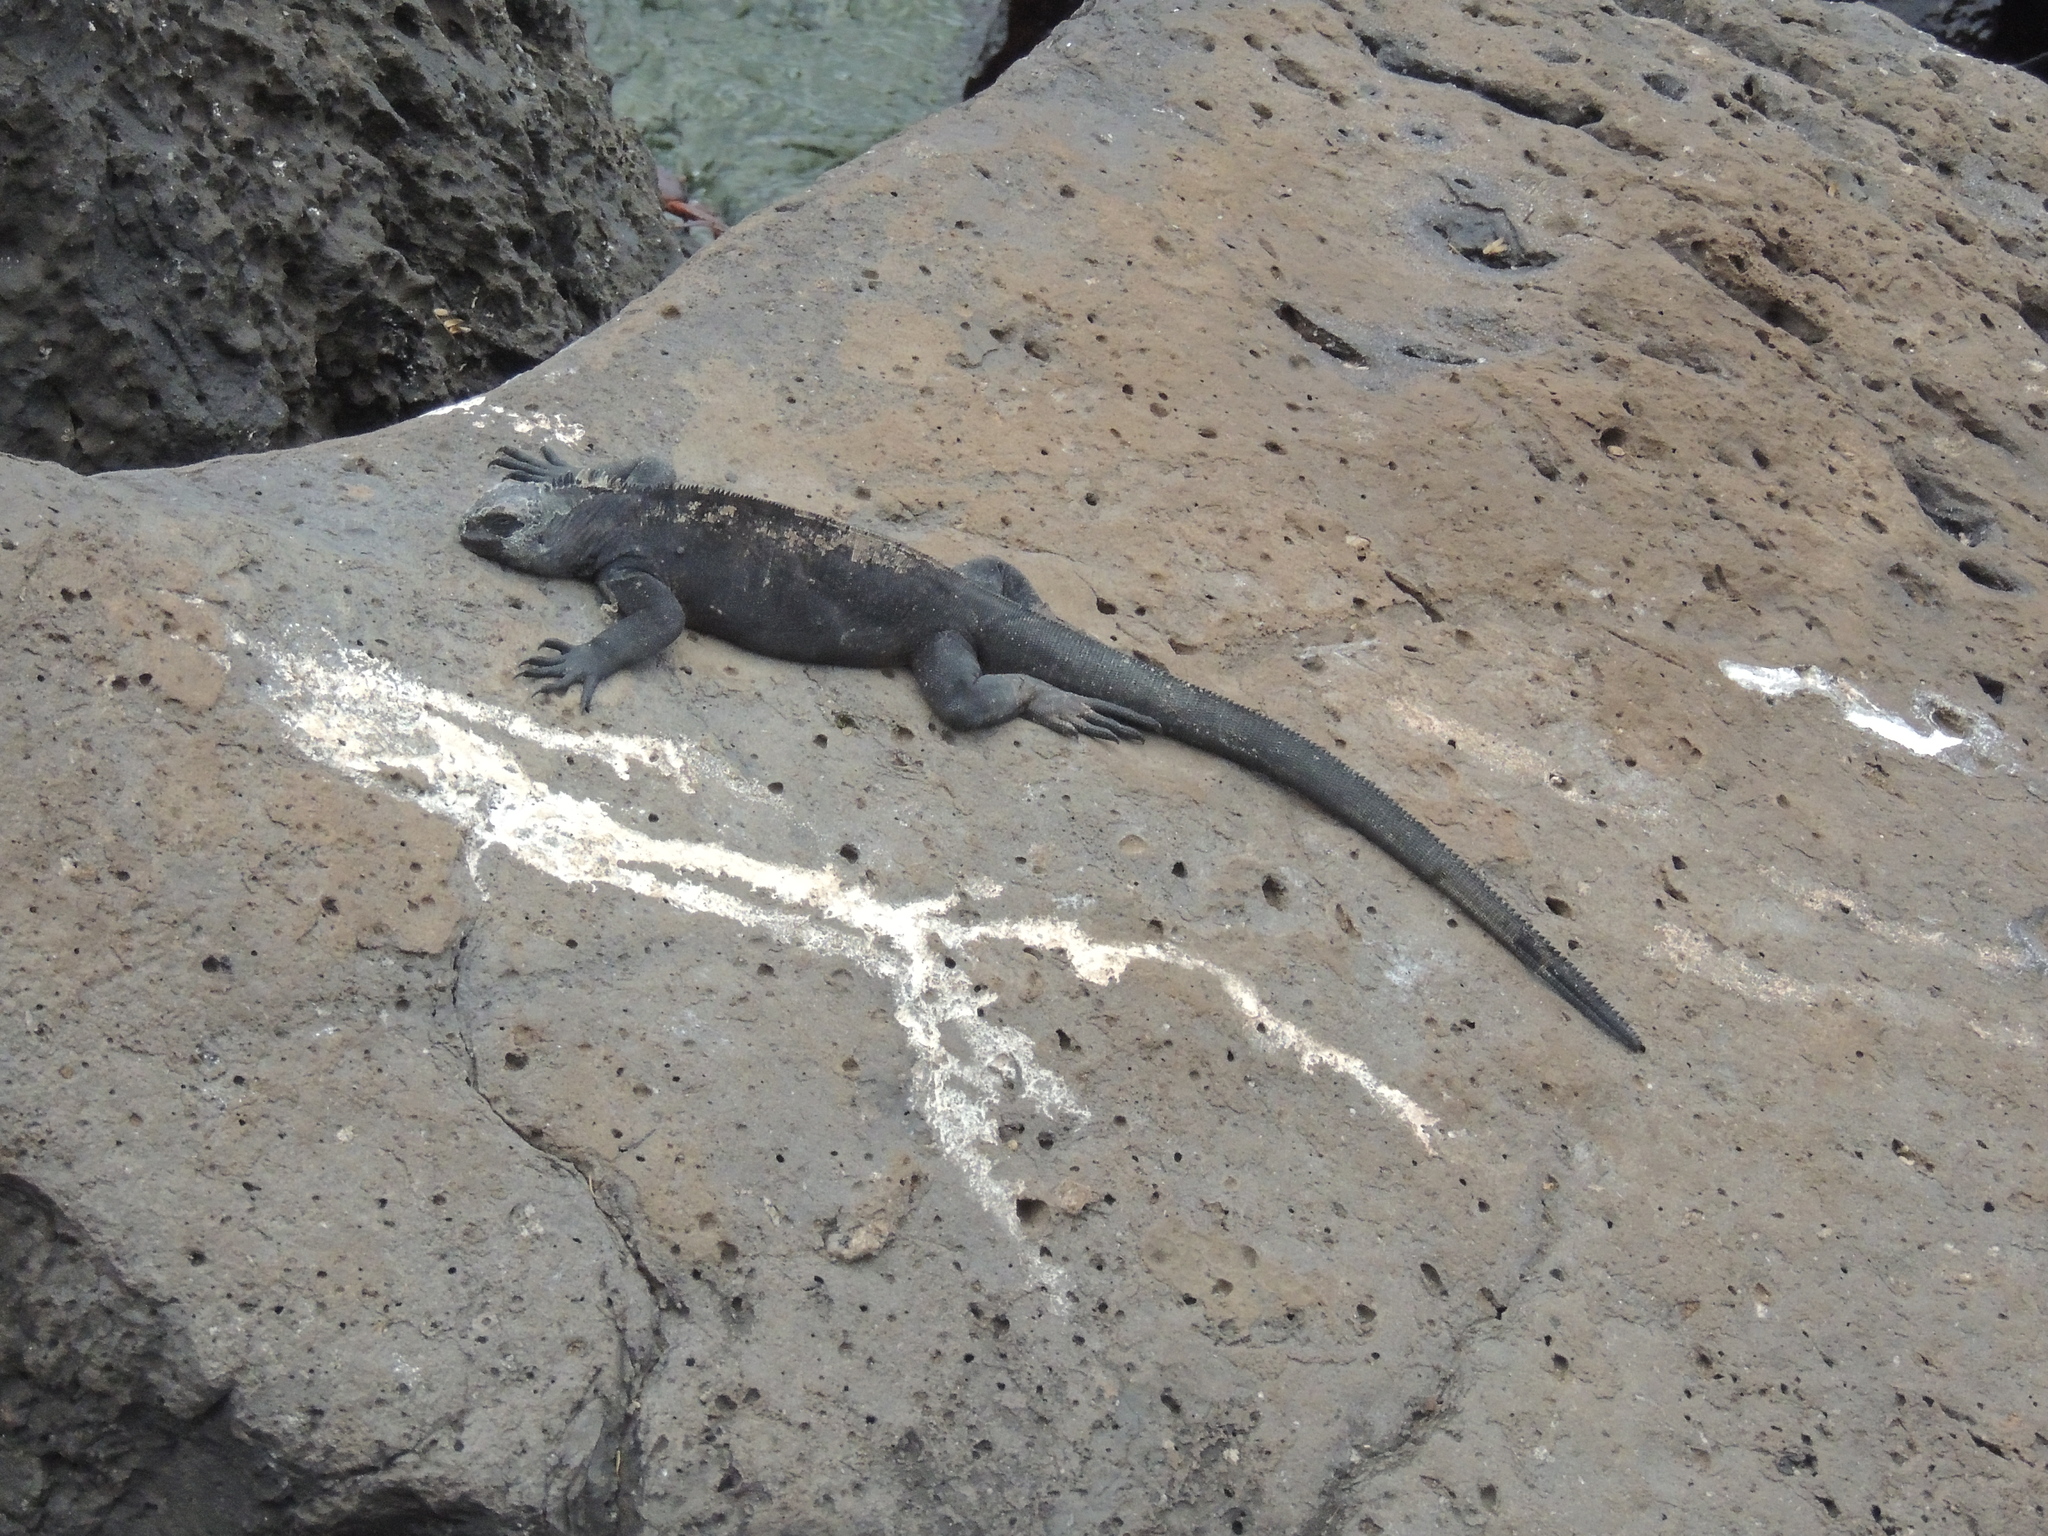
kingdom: Animalia
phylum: Chordata
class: Squamata
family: Iguanidae
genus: Amblyrhynchus
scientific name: Amblyrhynchus cristatus
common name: Marine iguana
